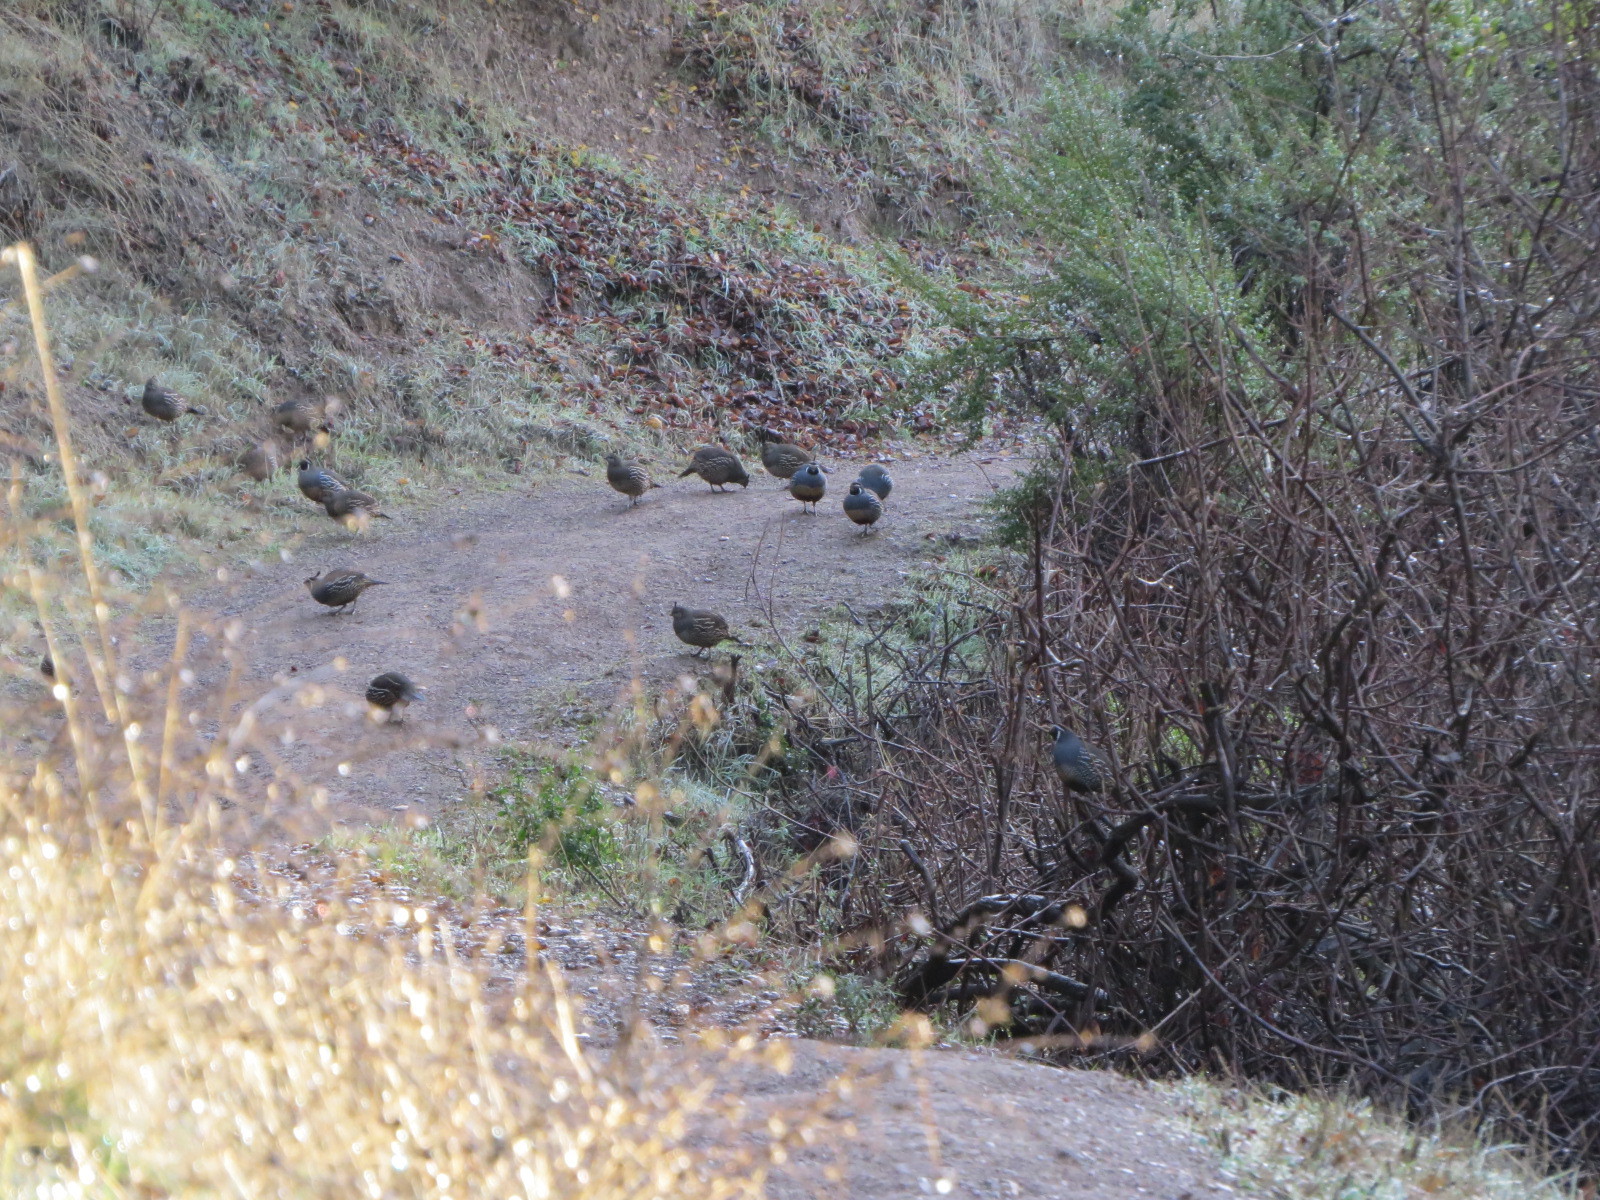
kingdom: Animalia
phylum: Chordata
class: Aves
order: Galliformes
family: Odontophoridae
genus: Callipepla
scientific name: Callipepla californica
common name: California quail
